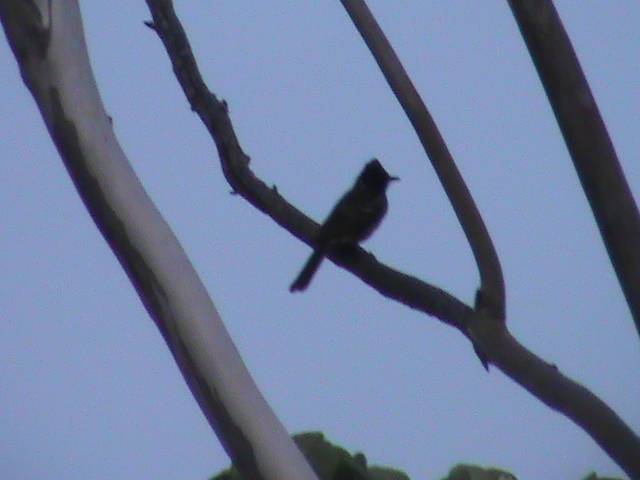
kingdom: Animalia
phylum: Chordata
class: Aves
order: Passeriformes
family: Pycnonotidae
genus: Pycnonotus
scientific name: Pycnonotus cafer
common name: Red-vented bulbul
